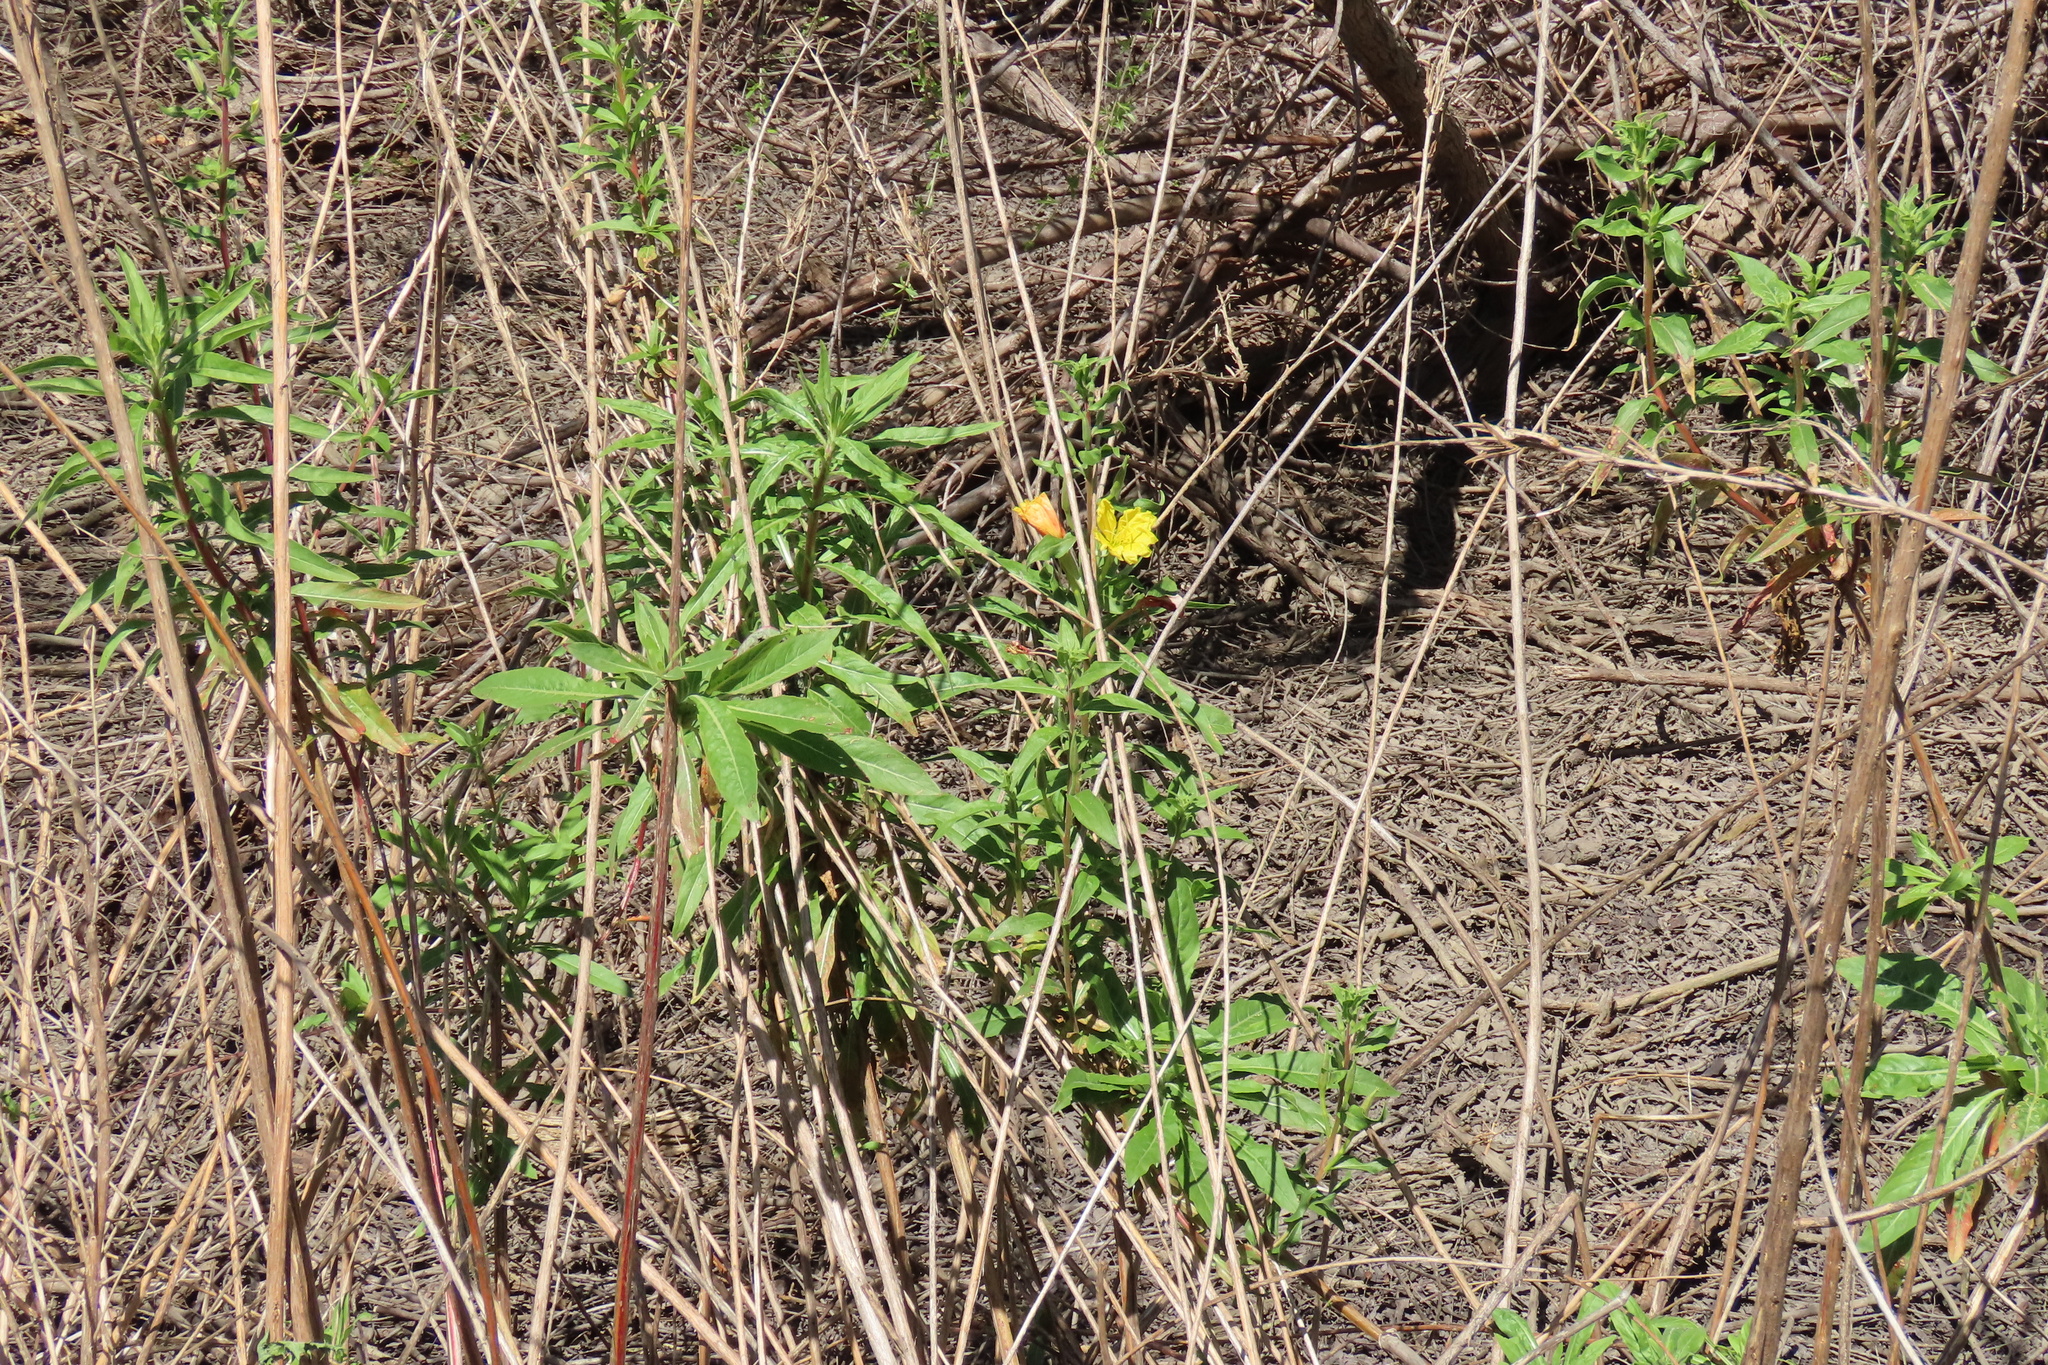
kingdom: Plantae
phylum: Tracheophyta
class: Magnoliopsida
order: Myrtales
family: Onagraceae
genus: Oenothera
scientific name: Oenothera elata
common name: Hooker's evening-primrose
